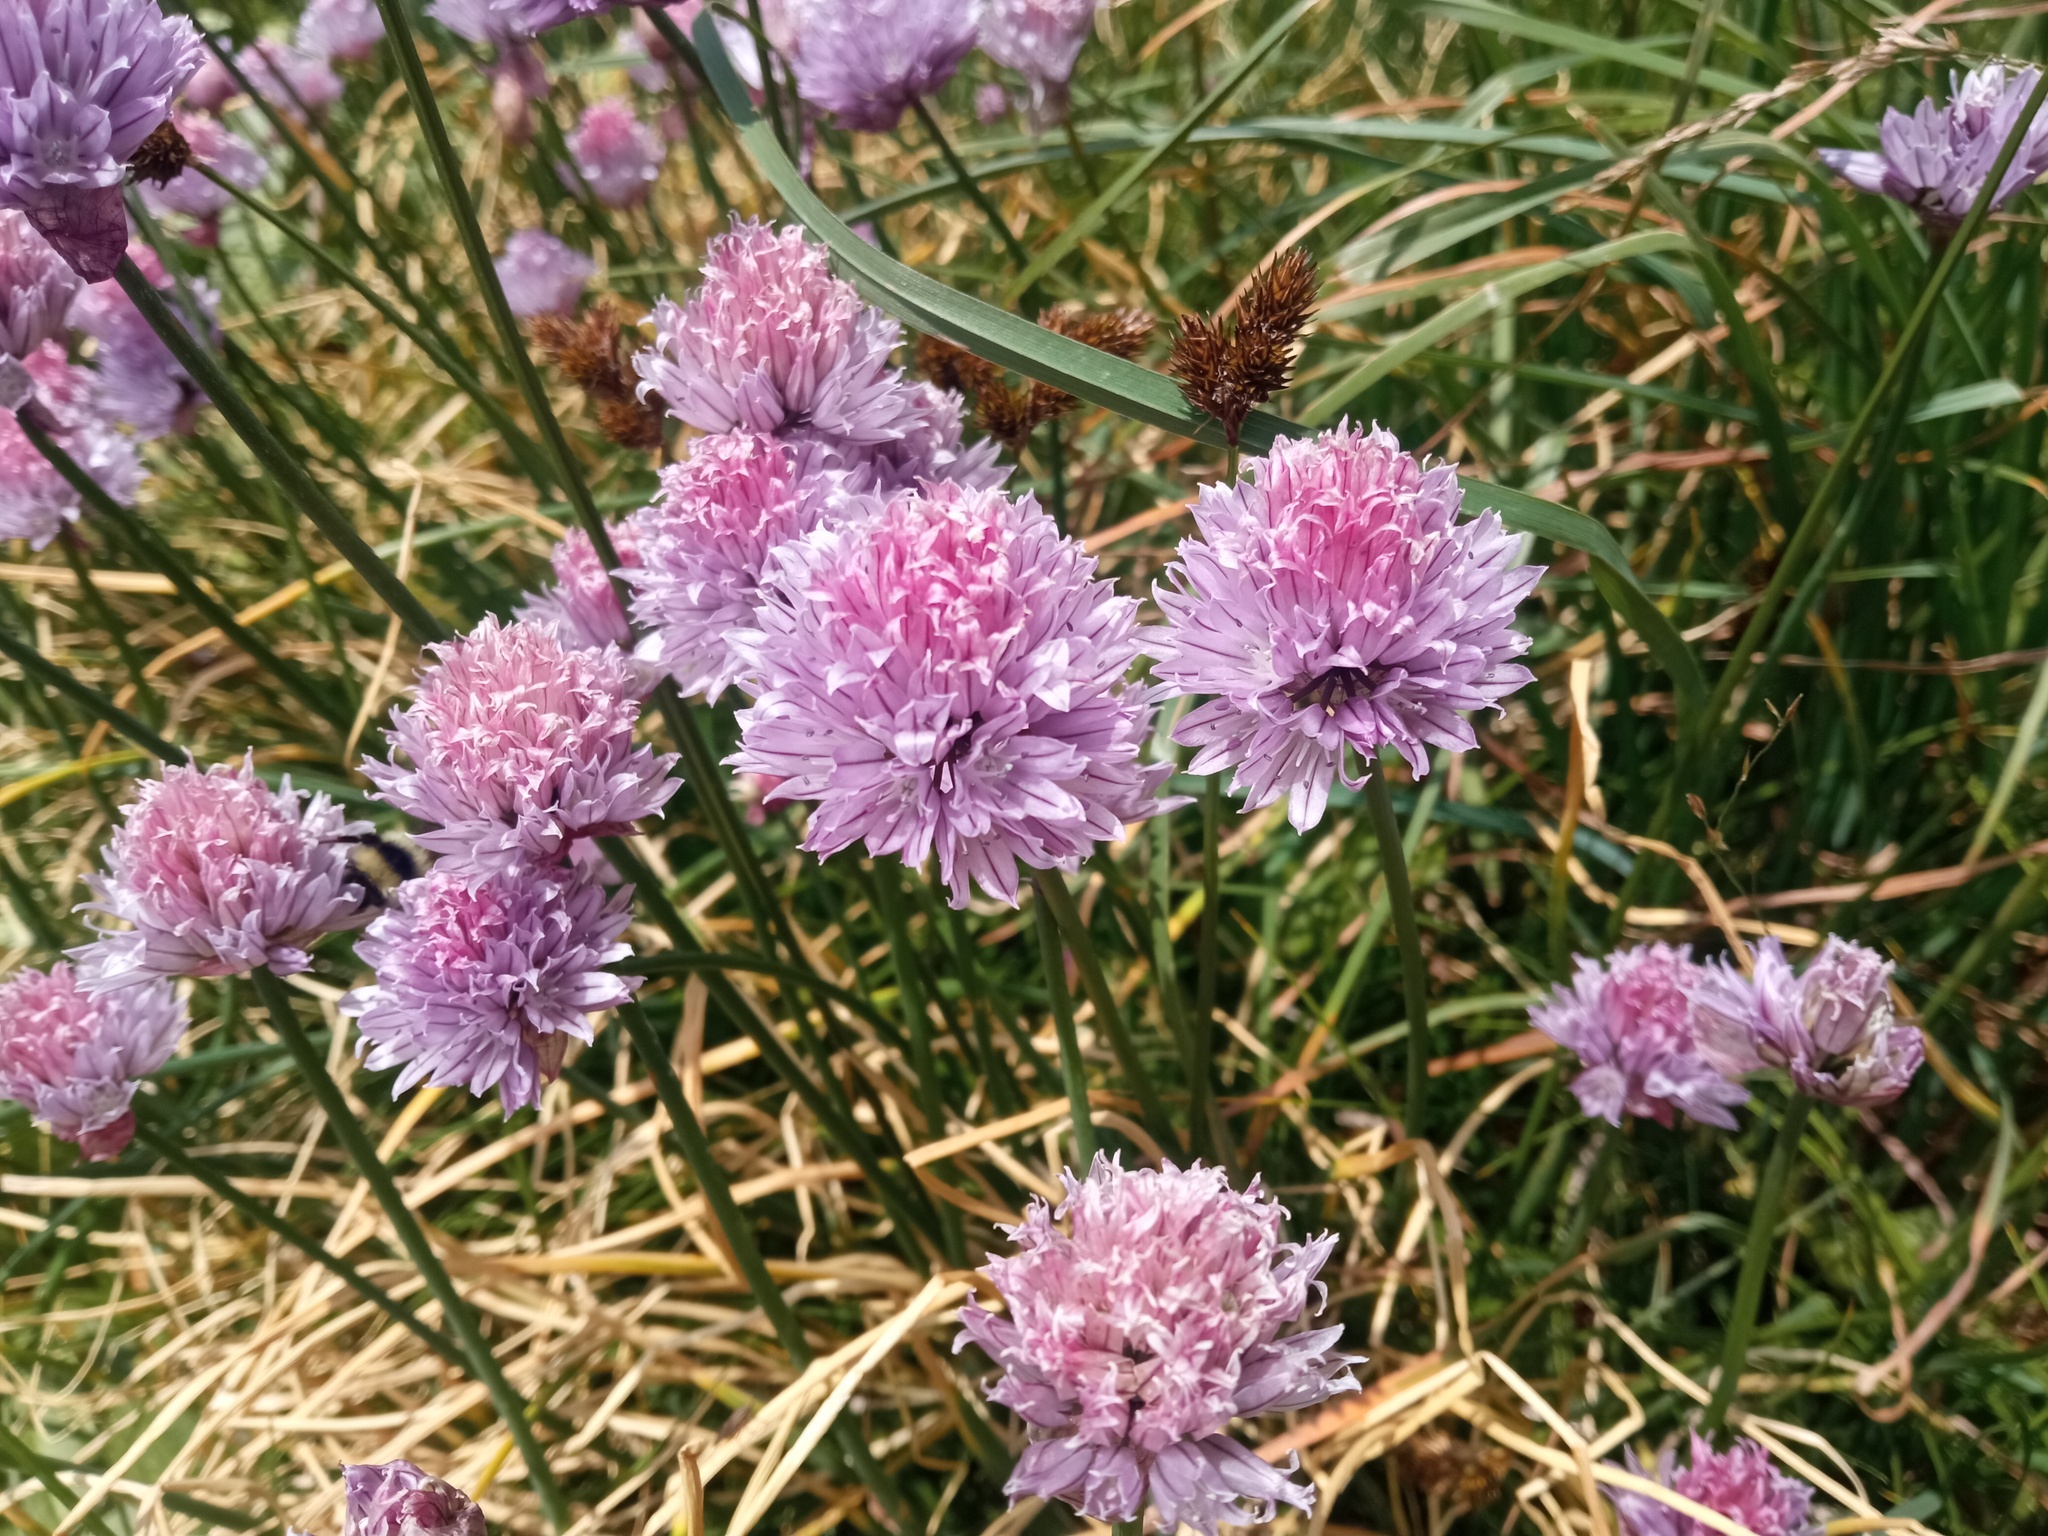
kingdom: Plantae
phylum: Tracheophyta
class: Liliopsida
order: Asparagales
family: Amaryllidaceae
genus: Allium
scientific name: Allium schoenoprasum
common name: Chives
